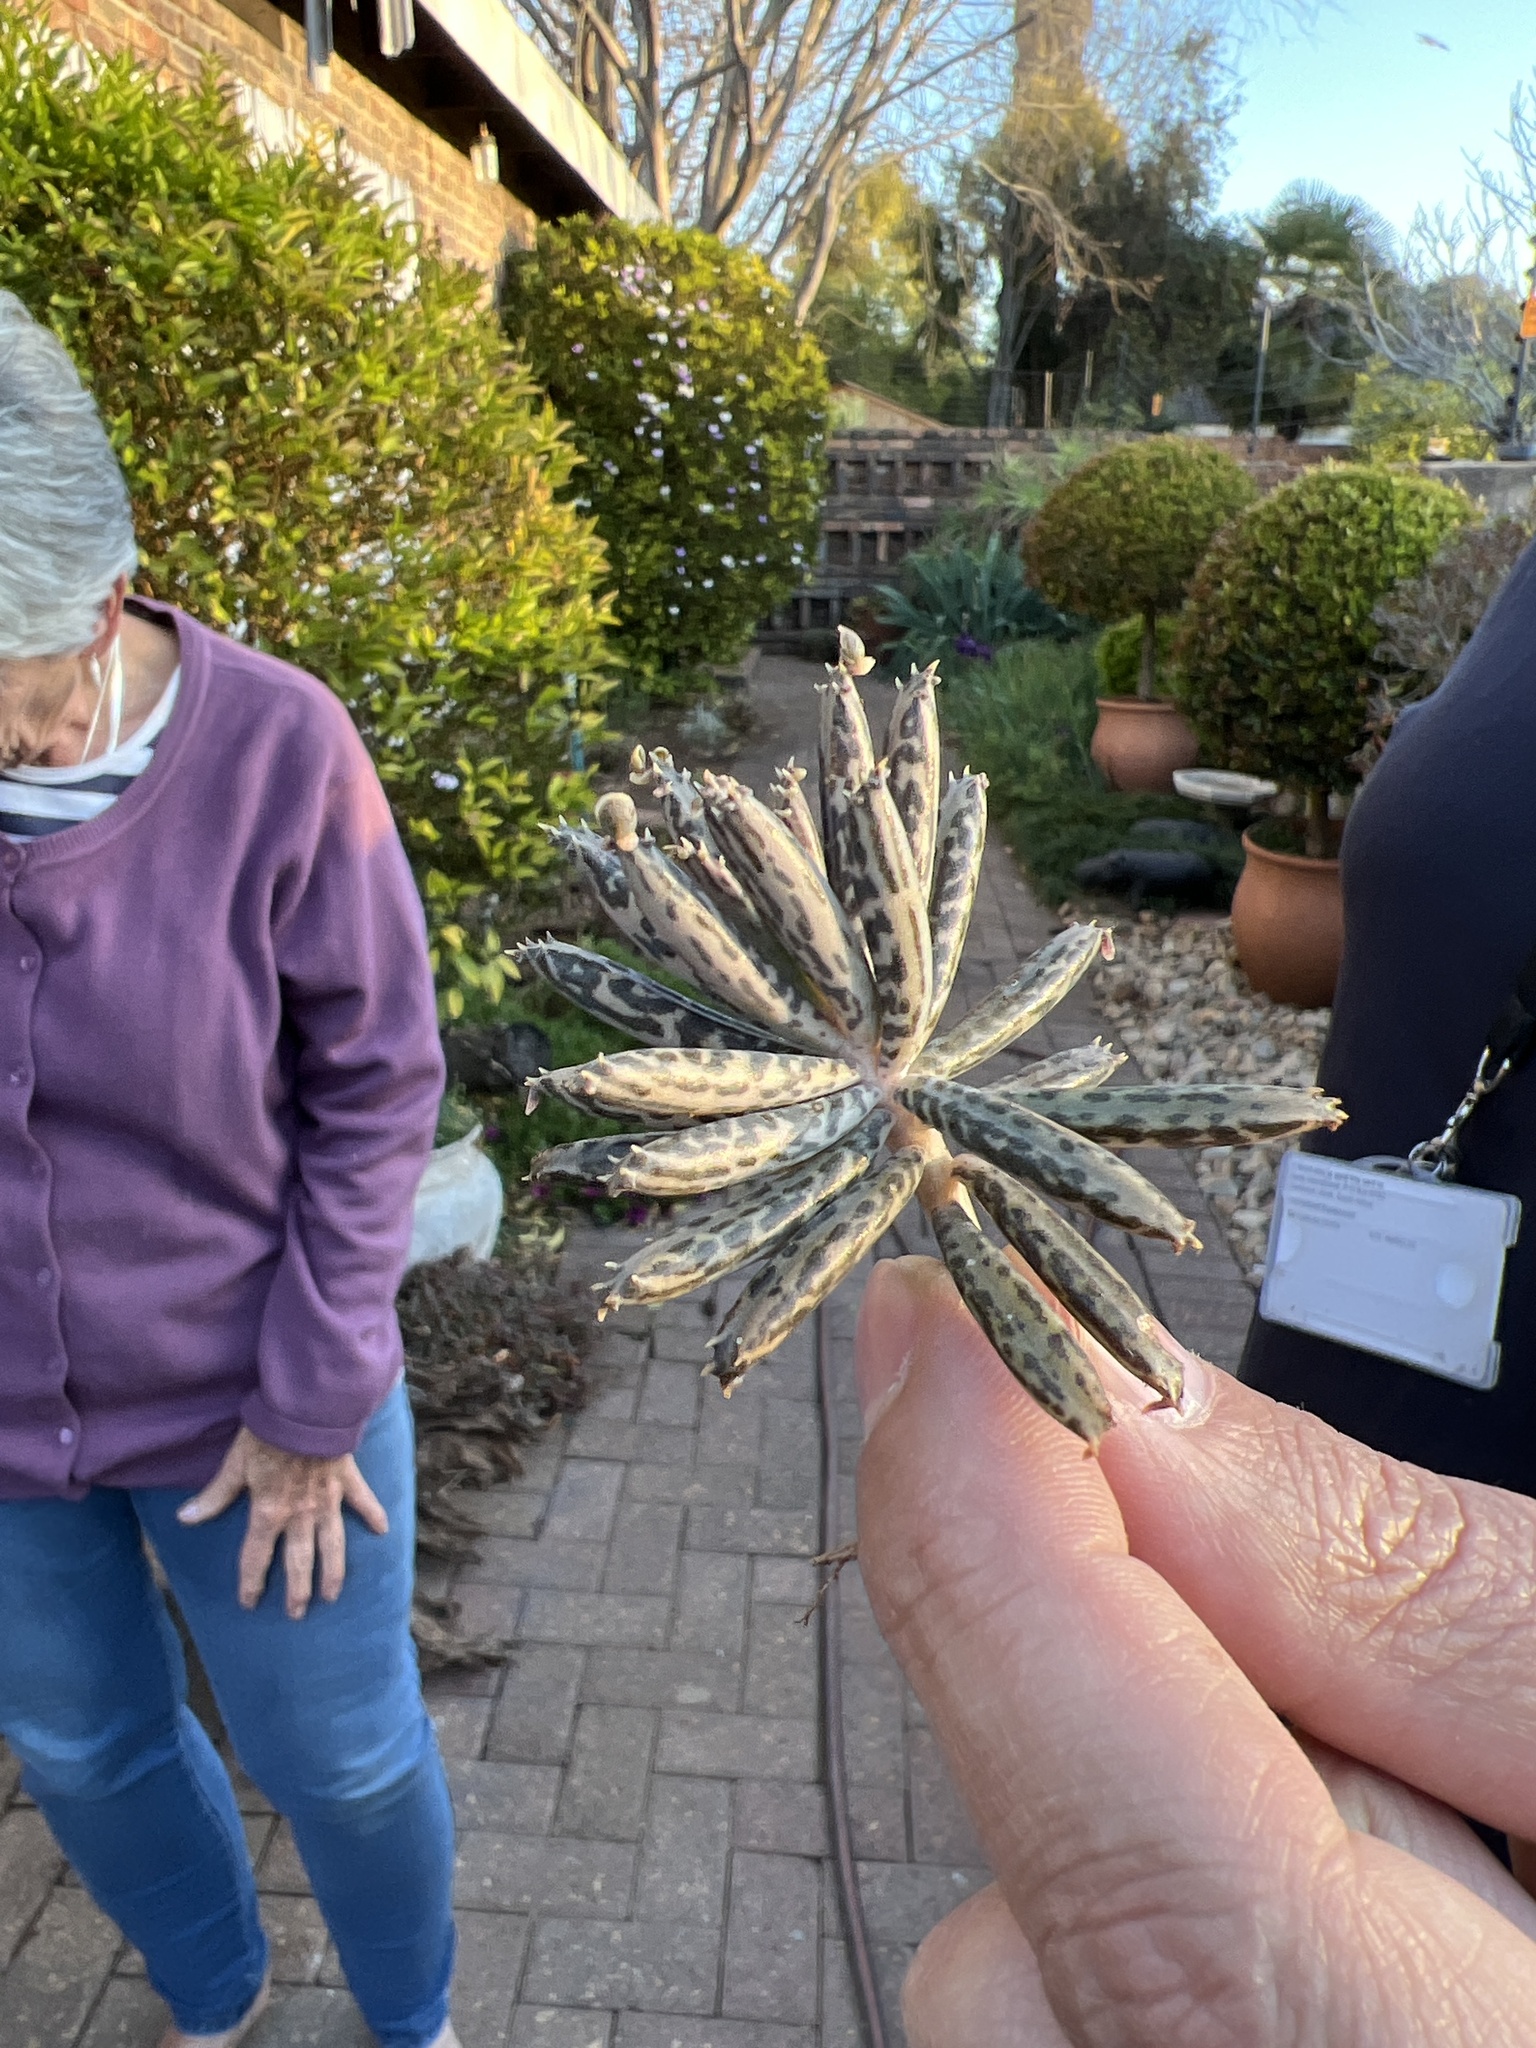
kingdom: Plantae
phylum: Tracheophyta
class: Magnoliopsida
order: Saxifragales
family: Crassulaceae
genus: Kalanchoe
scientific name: Kalanchoe delagoensis
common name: Chandelier plant
